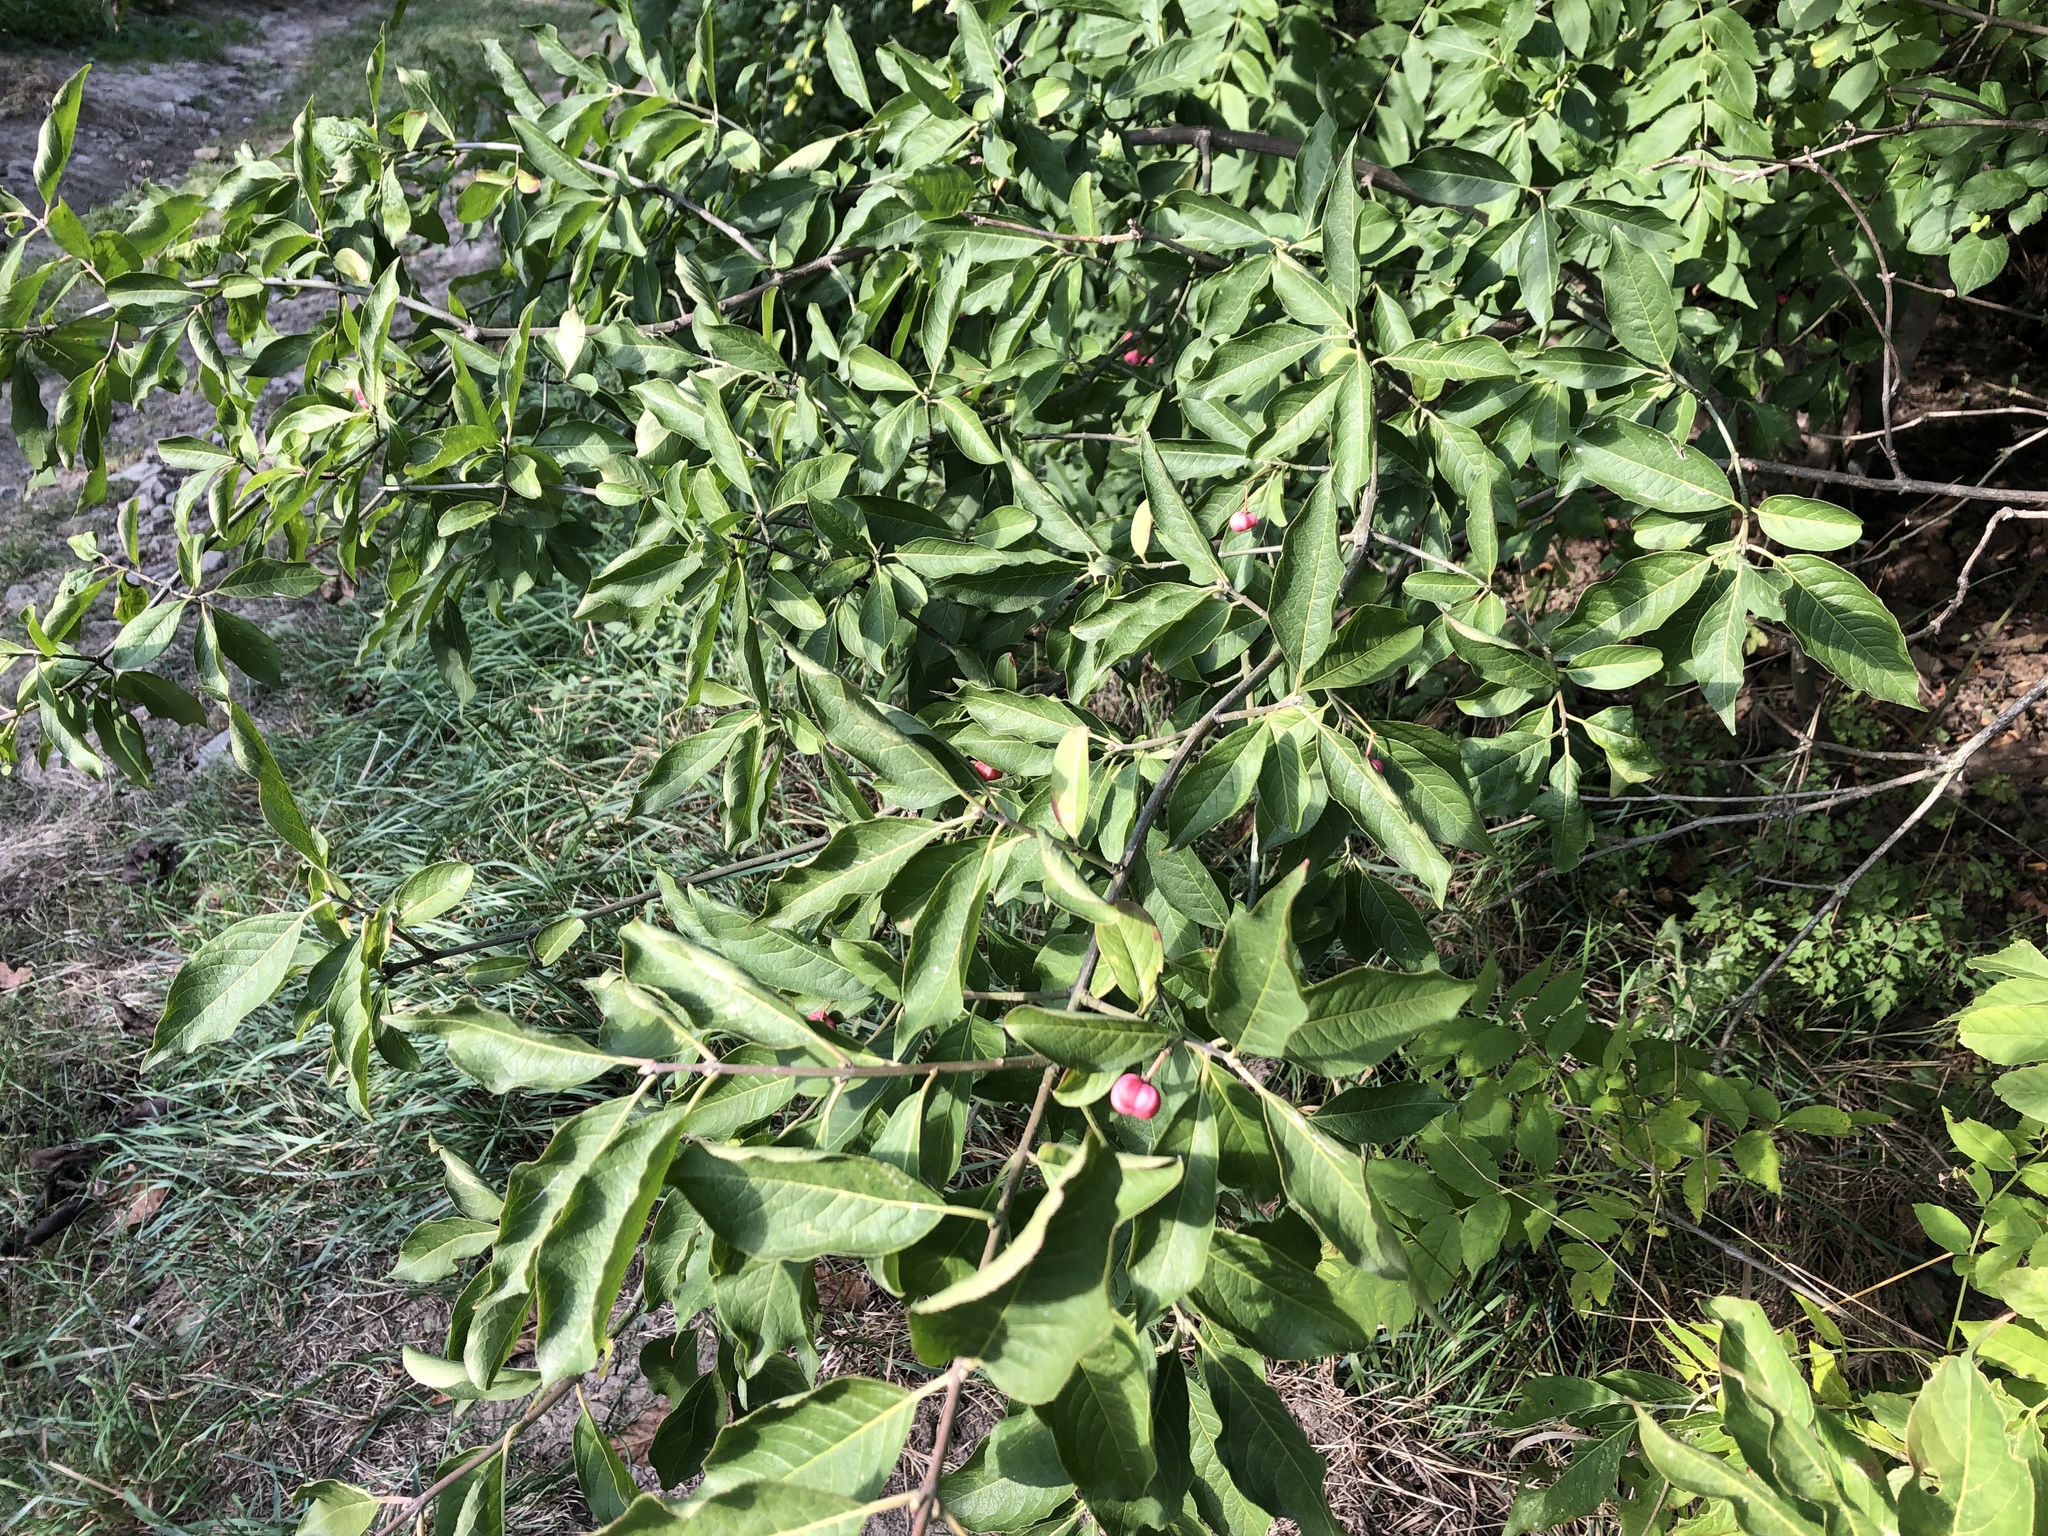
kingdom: Plantae
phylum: Tracheophyta
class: Magnoliopsida
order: Celastrales
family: Celastraceae
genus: Euonymus
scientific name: Euonymus europaeus
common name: Spindle
